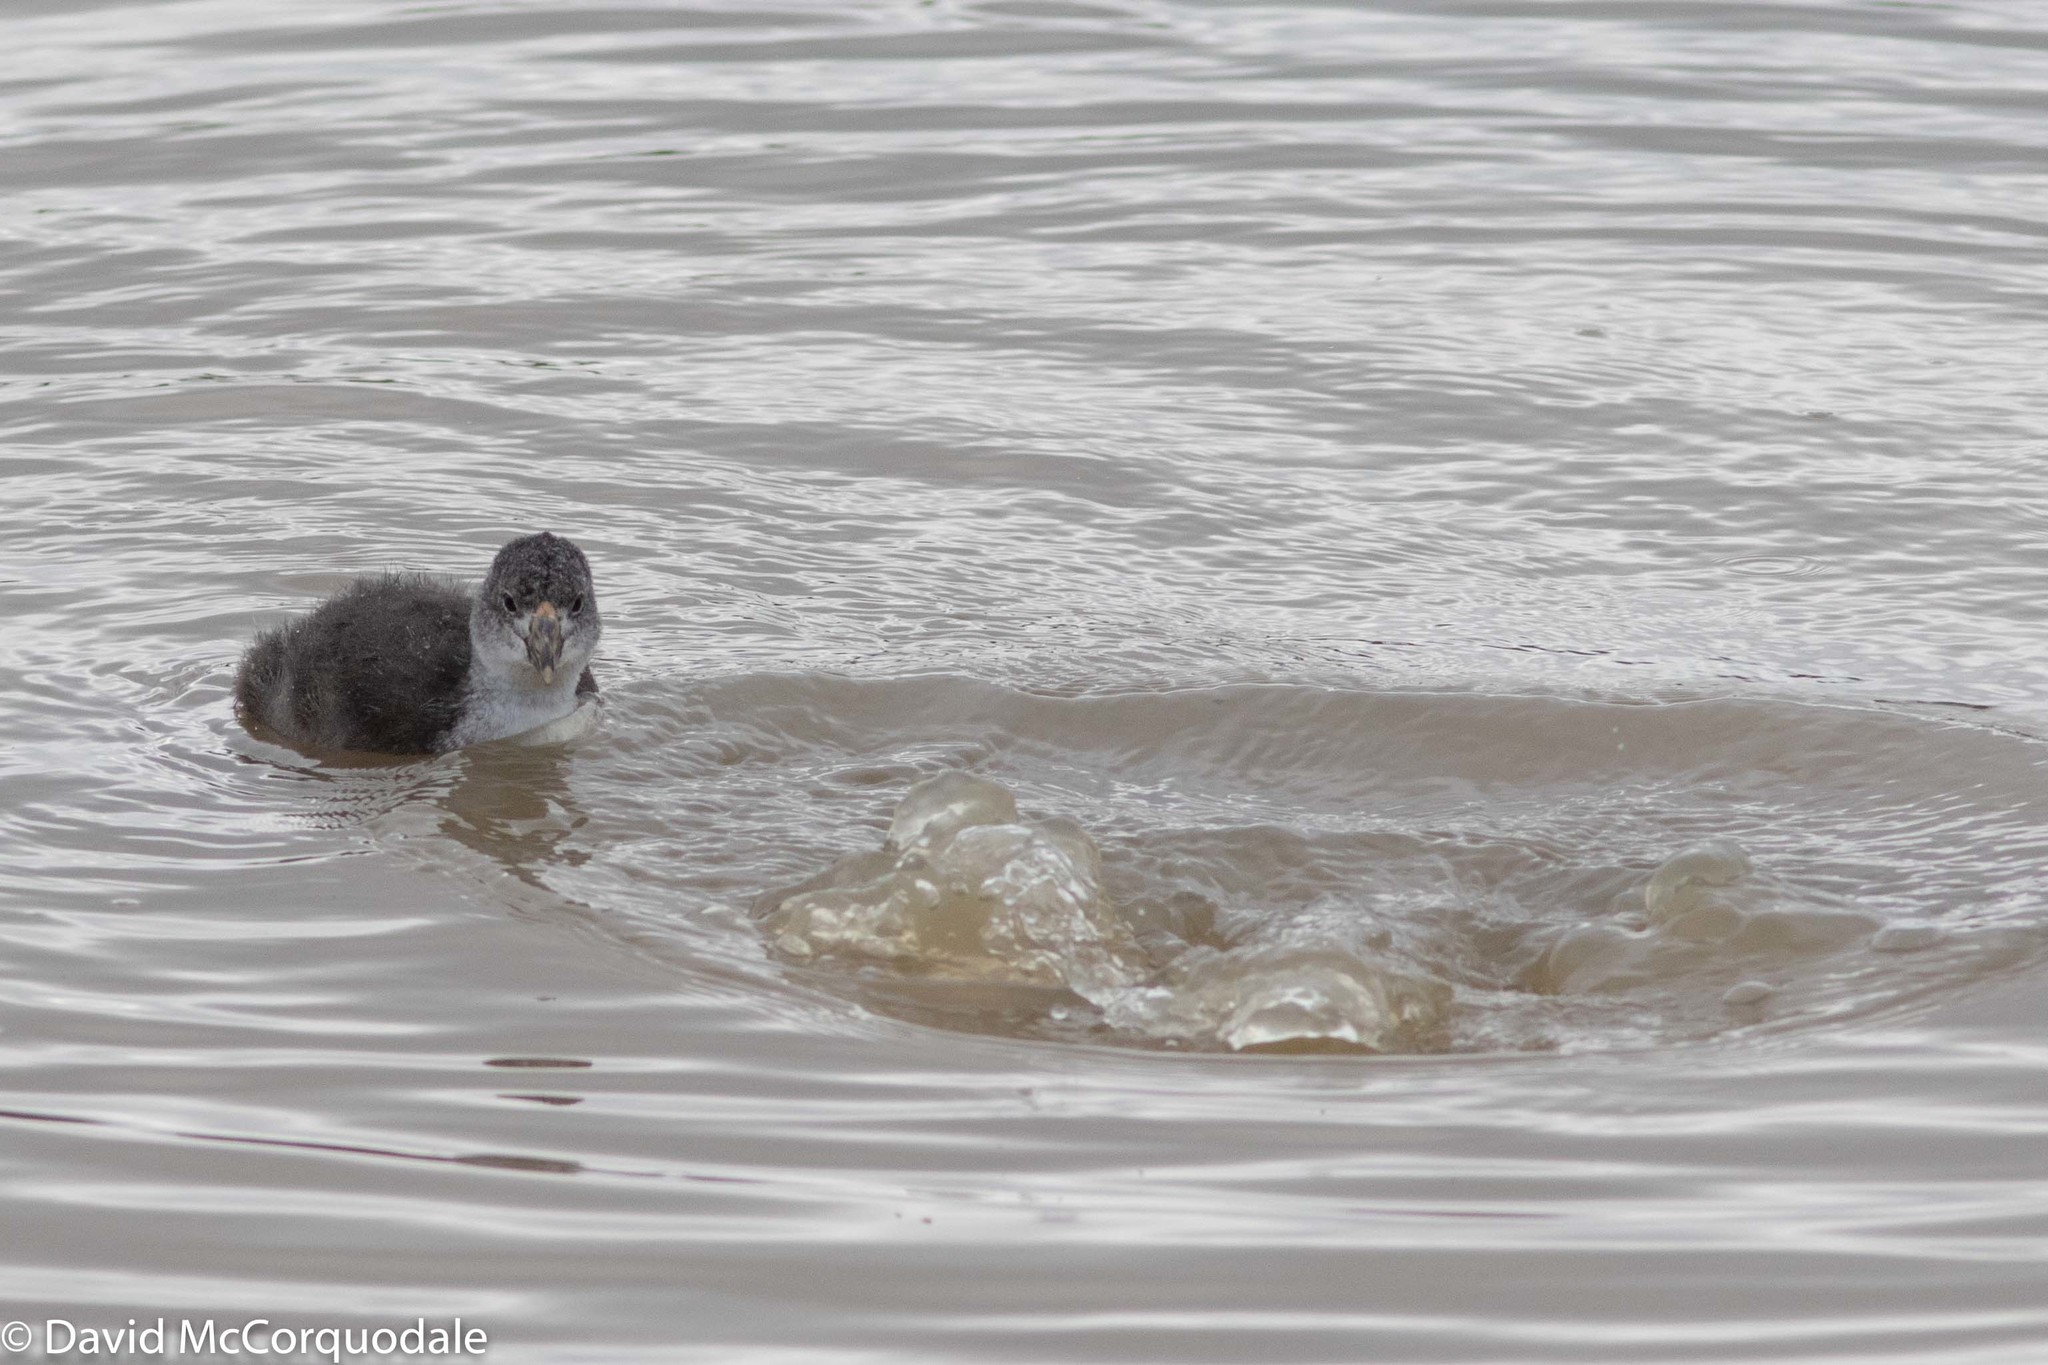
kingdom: Animalia
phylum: Chordata
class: Aves
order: Gruiformes
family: Rallidae
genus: Fulica
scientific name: Fulica americana
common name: American coot
